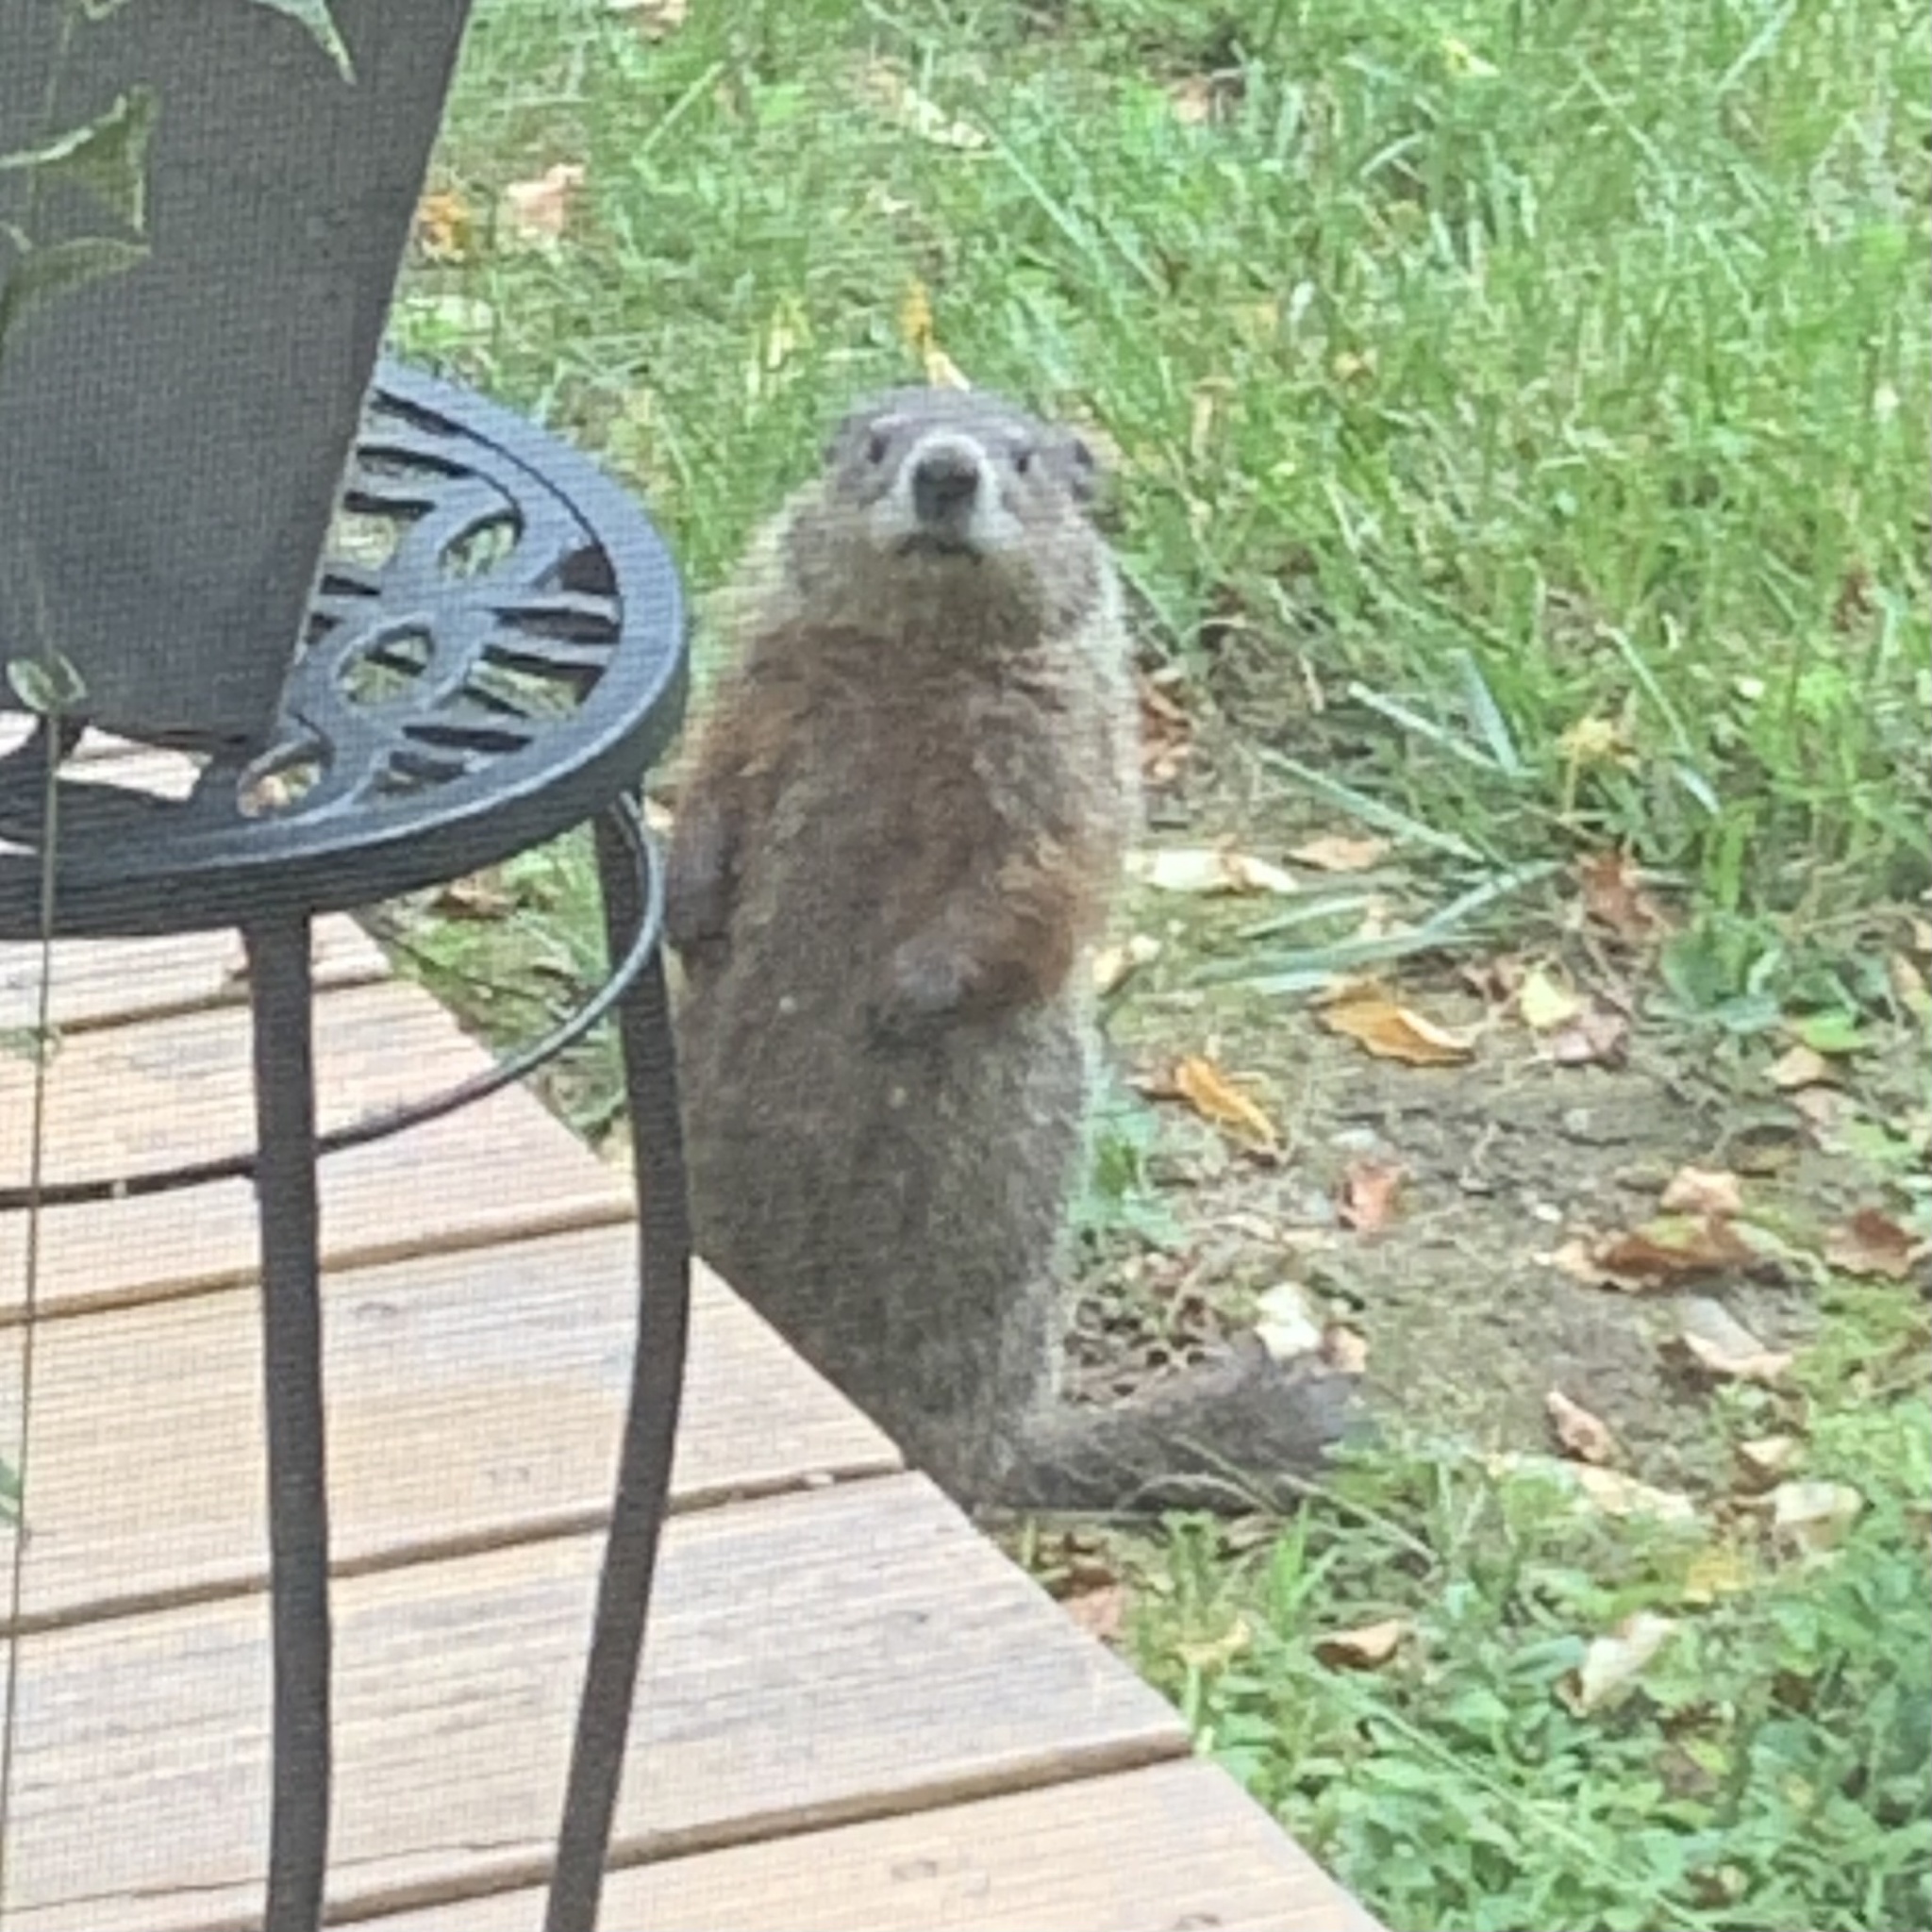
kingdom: Animalia
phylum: Chordata
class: Mammalia
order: Rodentia
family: Sciuridae
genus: Marmota
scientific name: Marmota monax
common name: Groundhog
